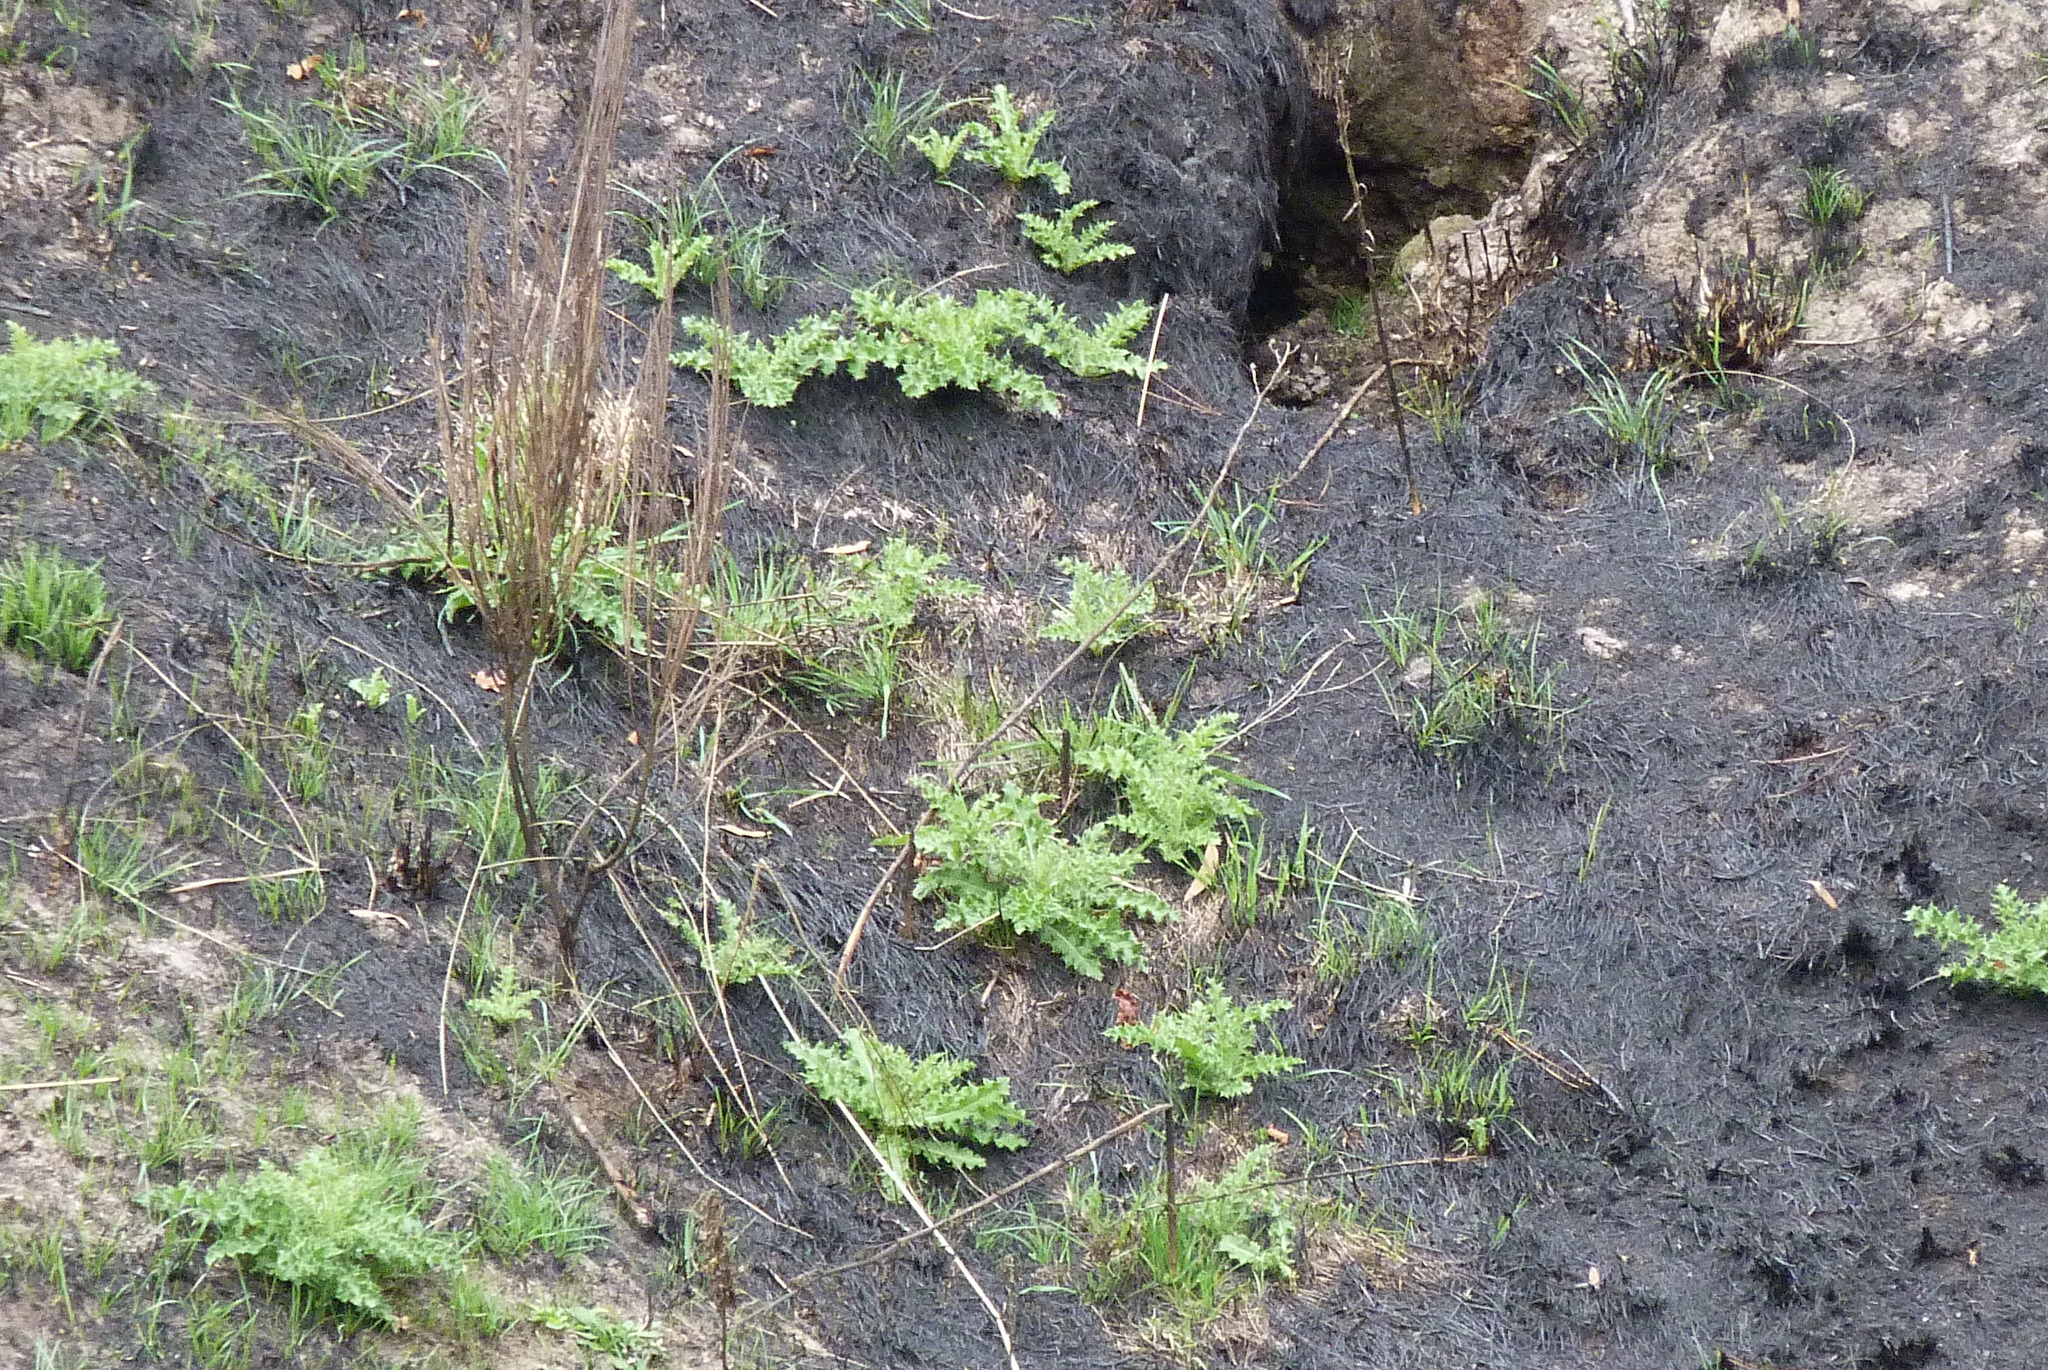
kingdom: Plantae
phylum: Tracheophyta
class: Magnoliopsida
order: Asterales
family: Asteraceae
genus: Cirsium
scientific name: Cirsium arvense
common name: Creeping thistle
